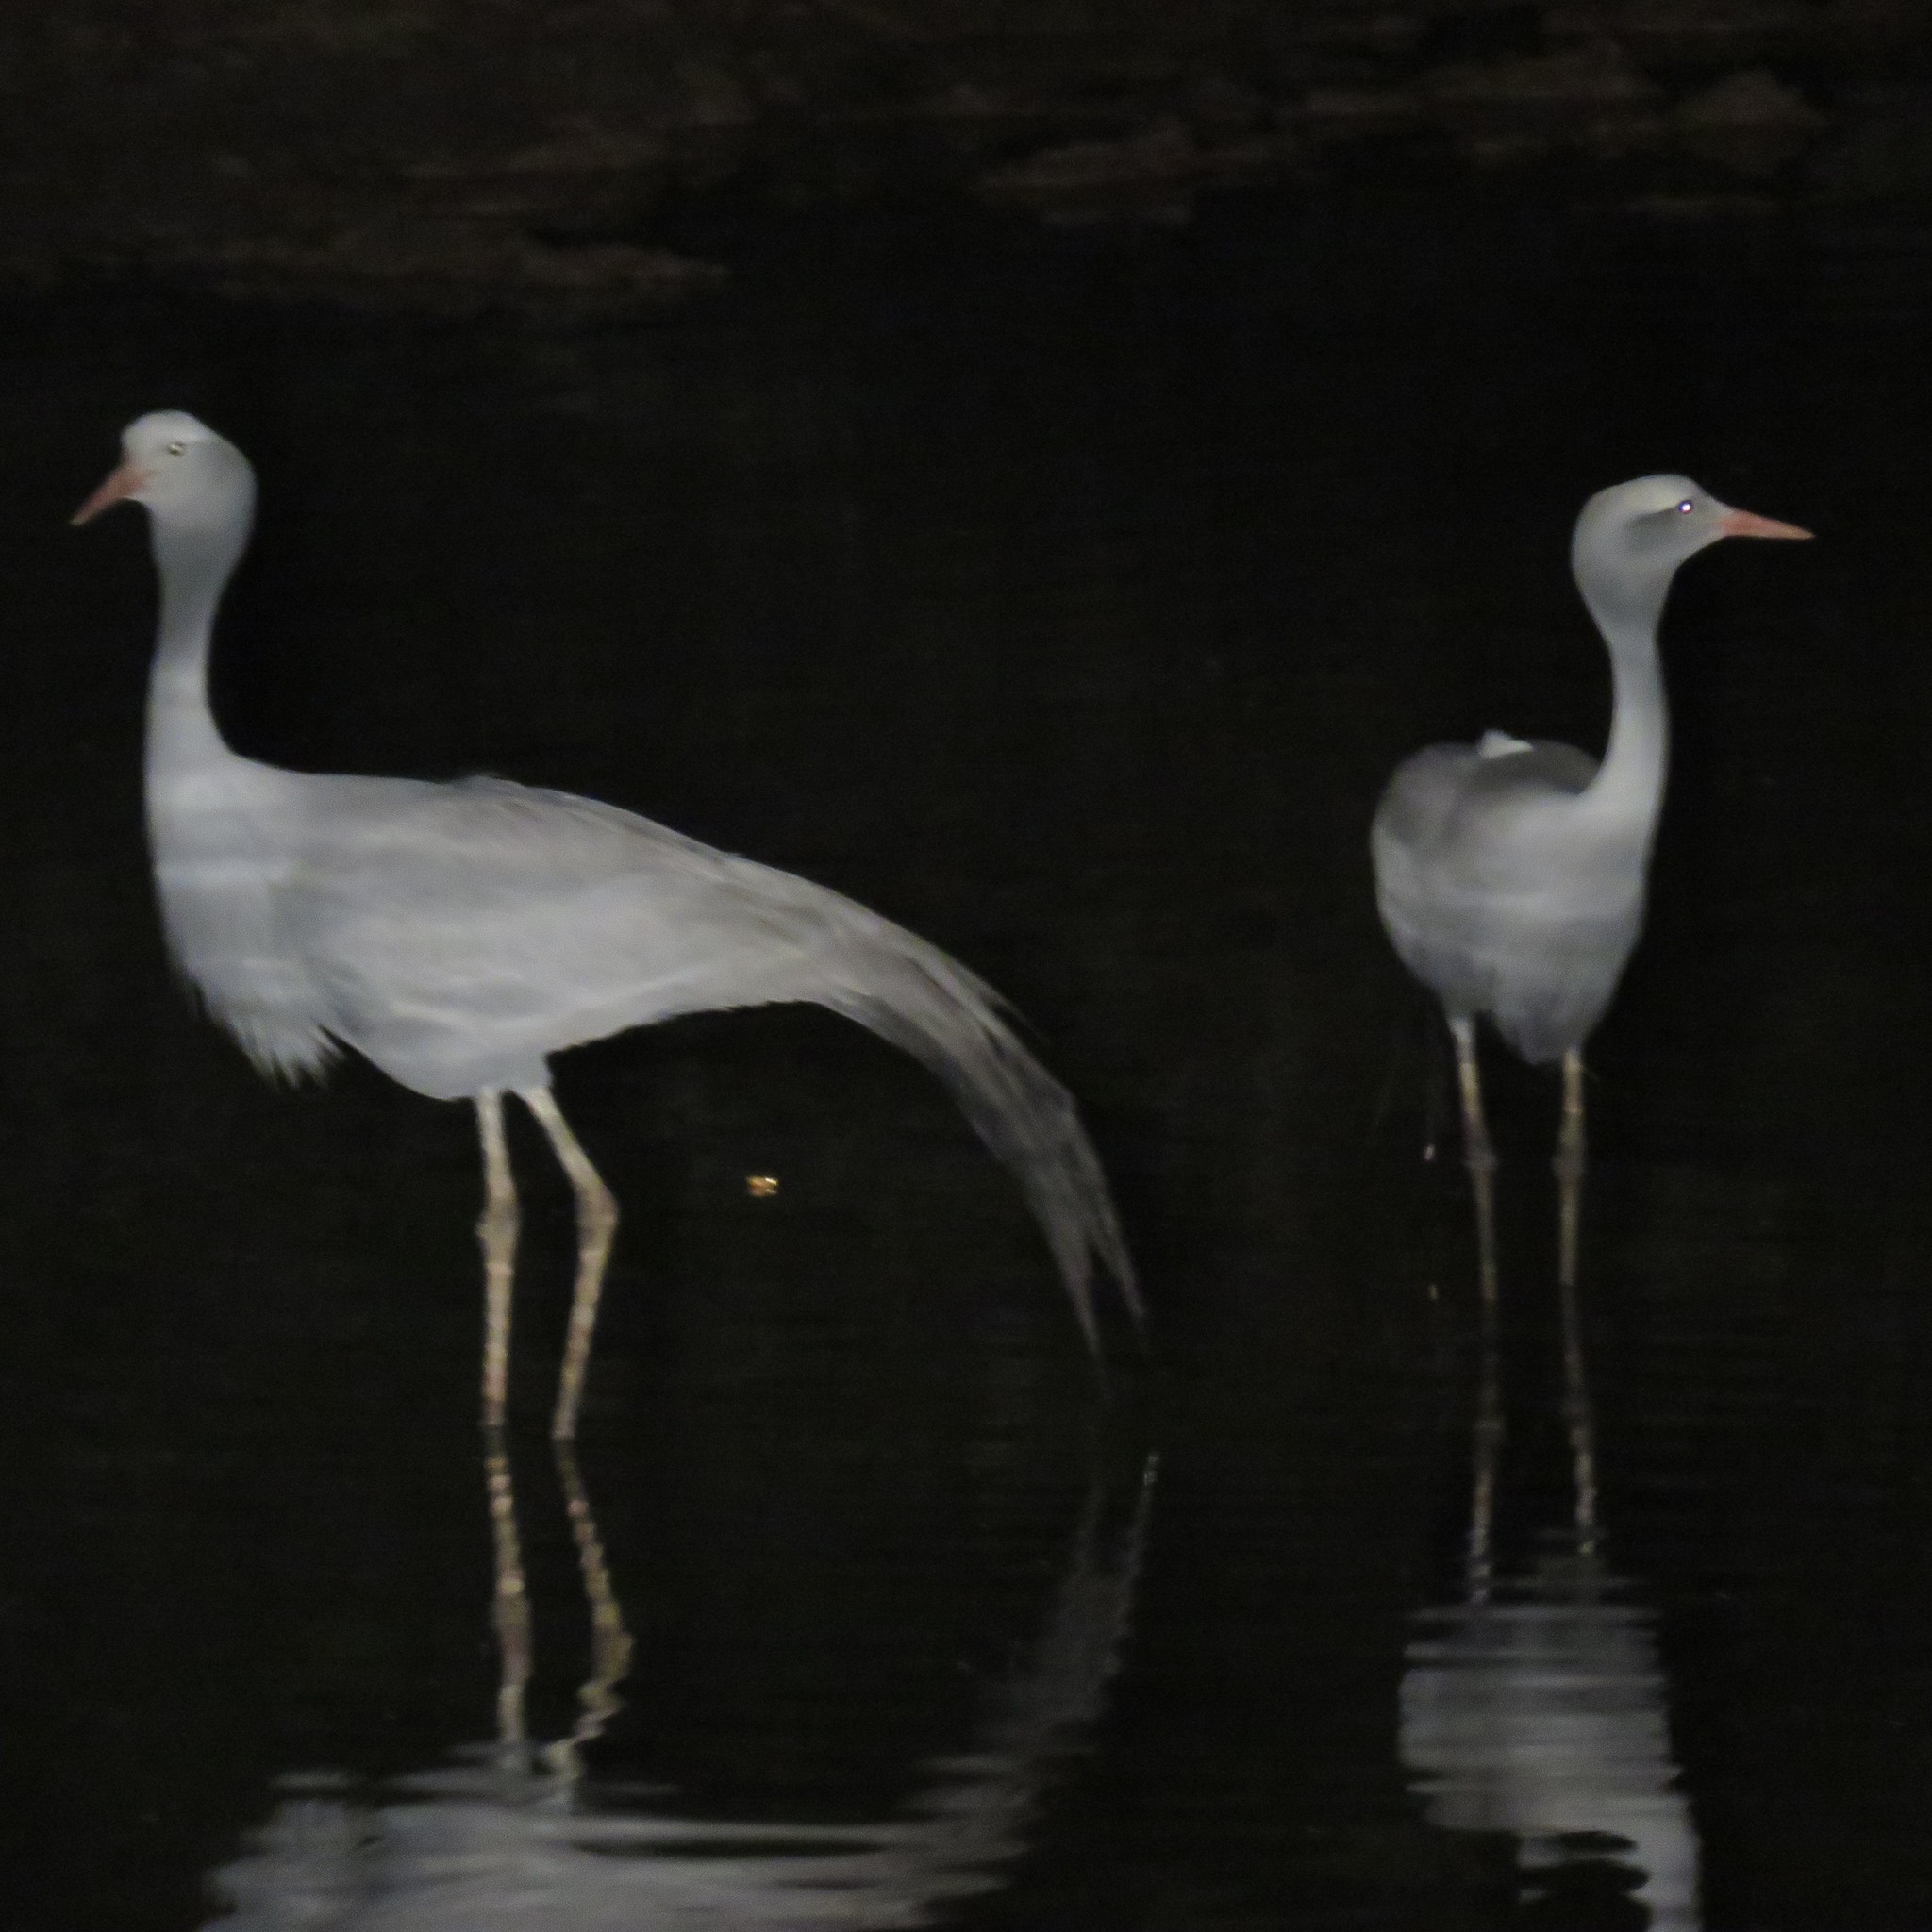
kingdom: Animalia
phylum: Chordata
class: Aves
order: Gruiformes
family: Gruidae
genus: Anthropoides
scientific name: Anthropoides paradiseus
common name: Blue crane
